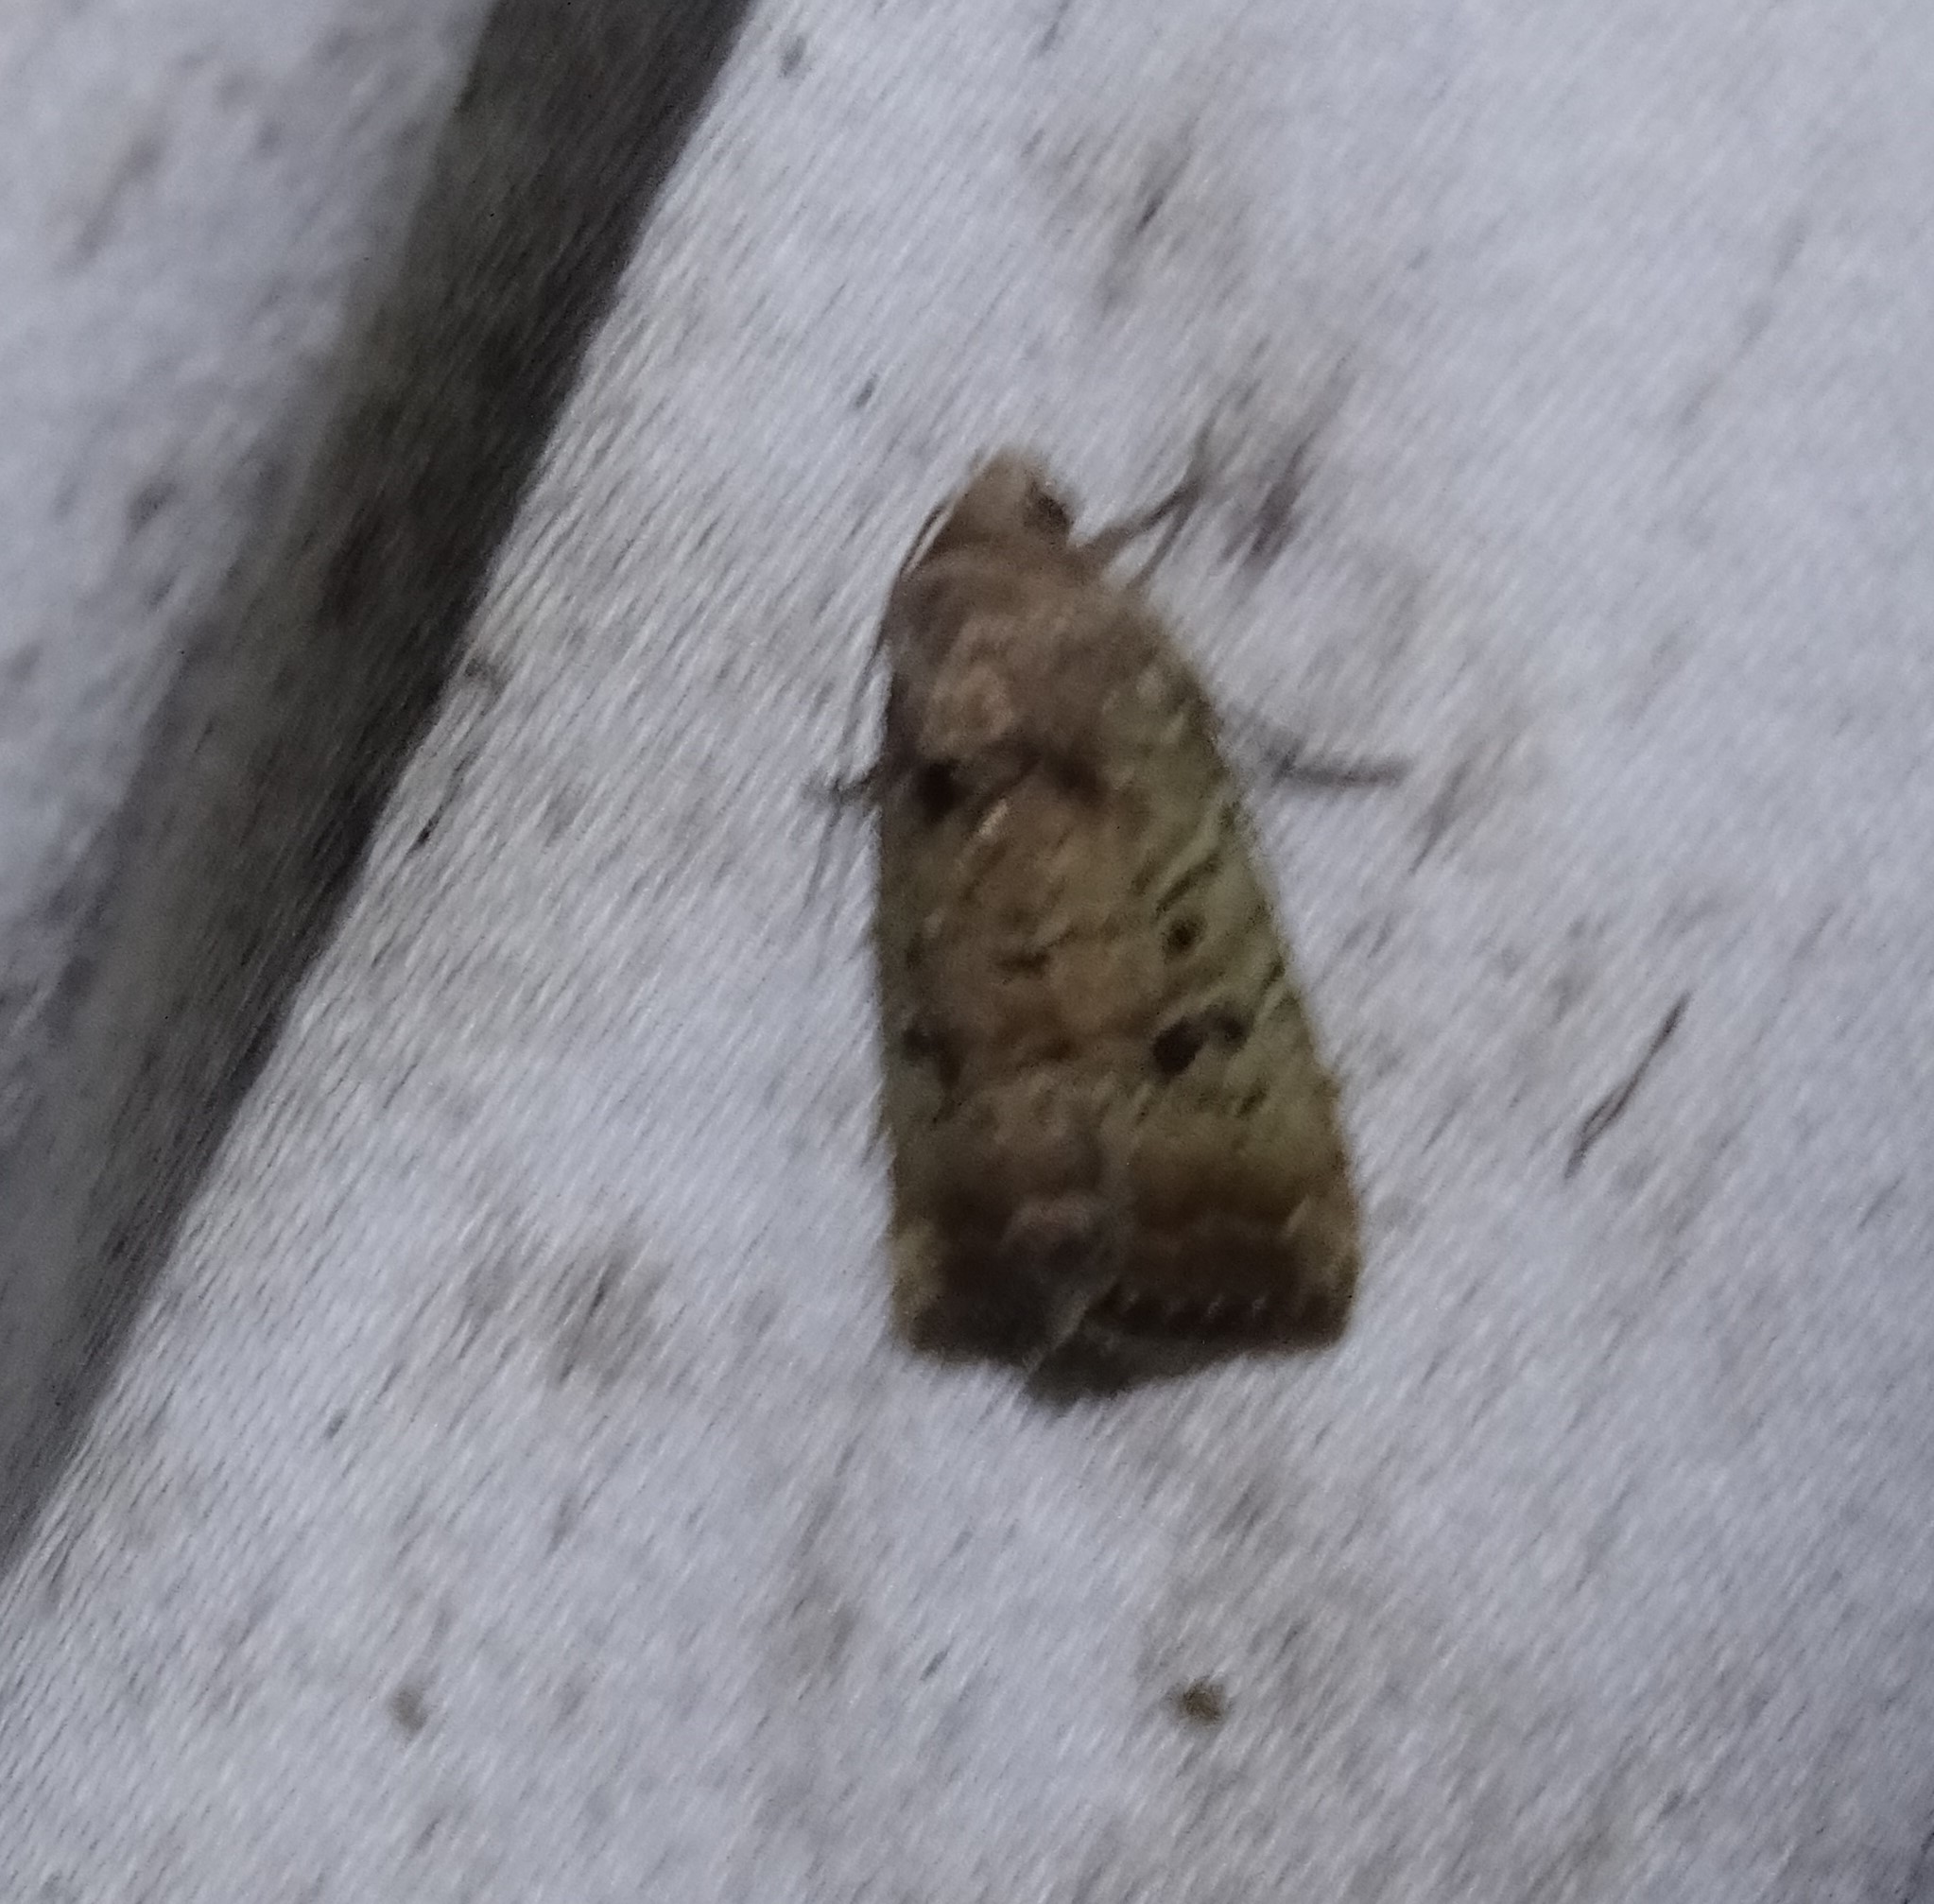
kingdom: Animalia
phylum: Arthropoda
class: Insecta
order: Lepidoptera
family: Noctuidae
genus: Elaphria
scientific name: Elaphria fuscimacula
